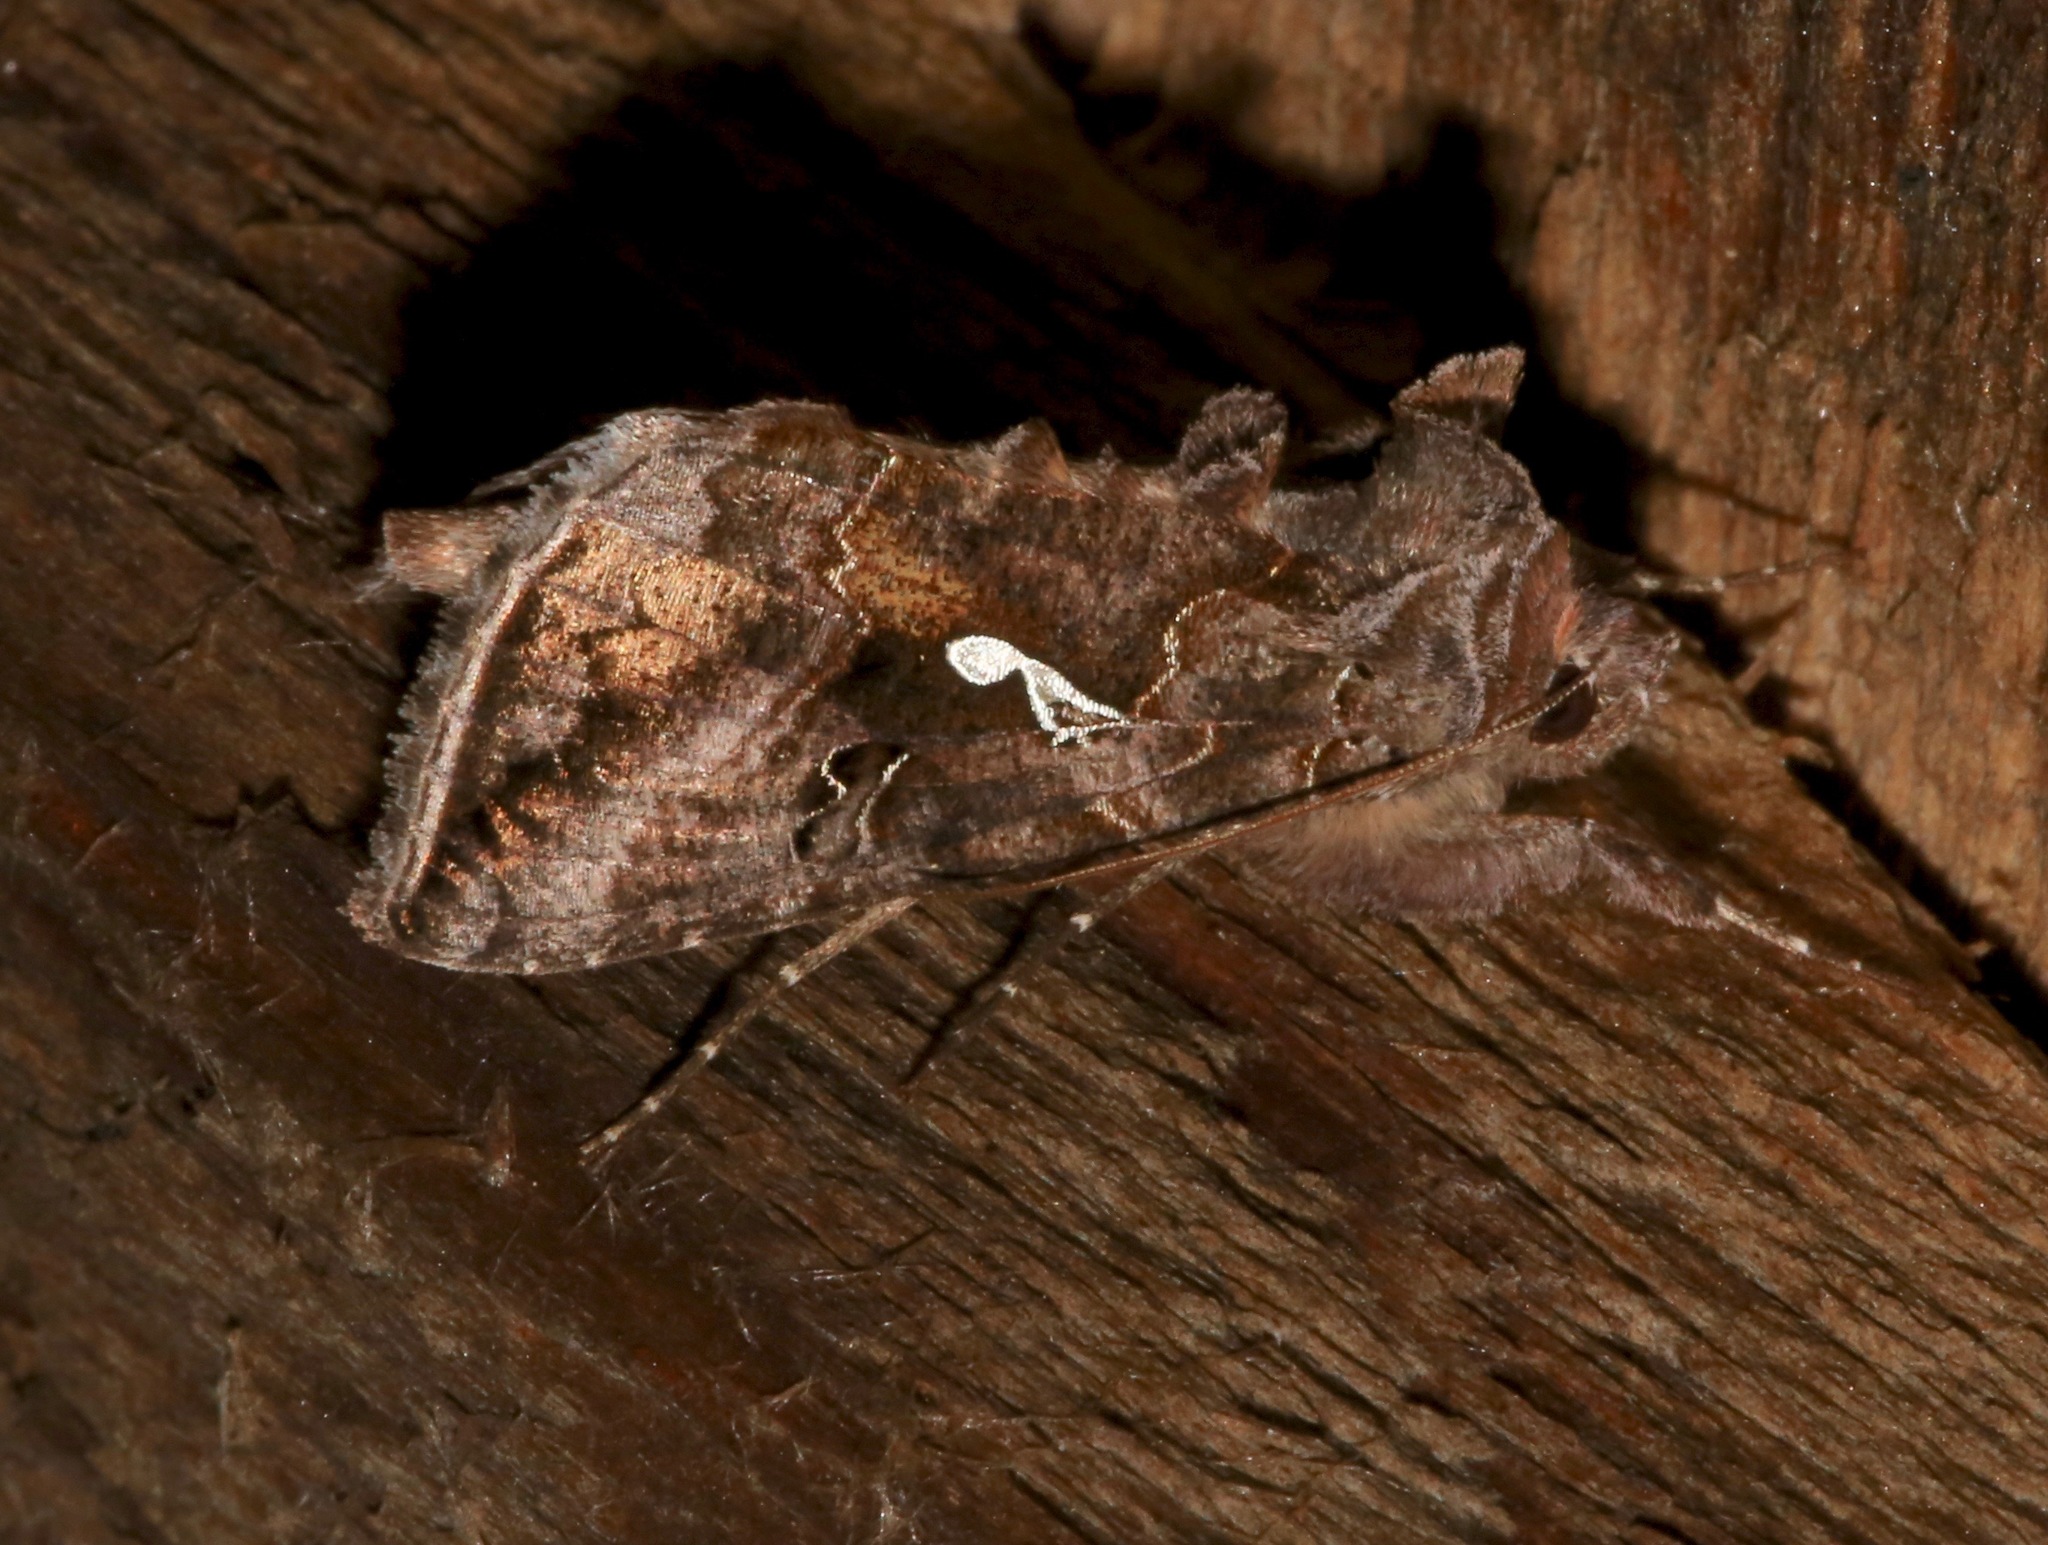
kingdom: Animalia
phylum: Arthropoda
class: Insecta
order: Lepidoptera
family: Noctuidae
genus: Autographa
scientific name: Autographa precationis
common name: Common looper moth
